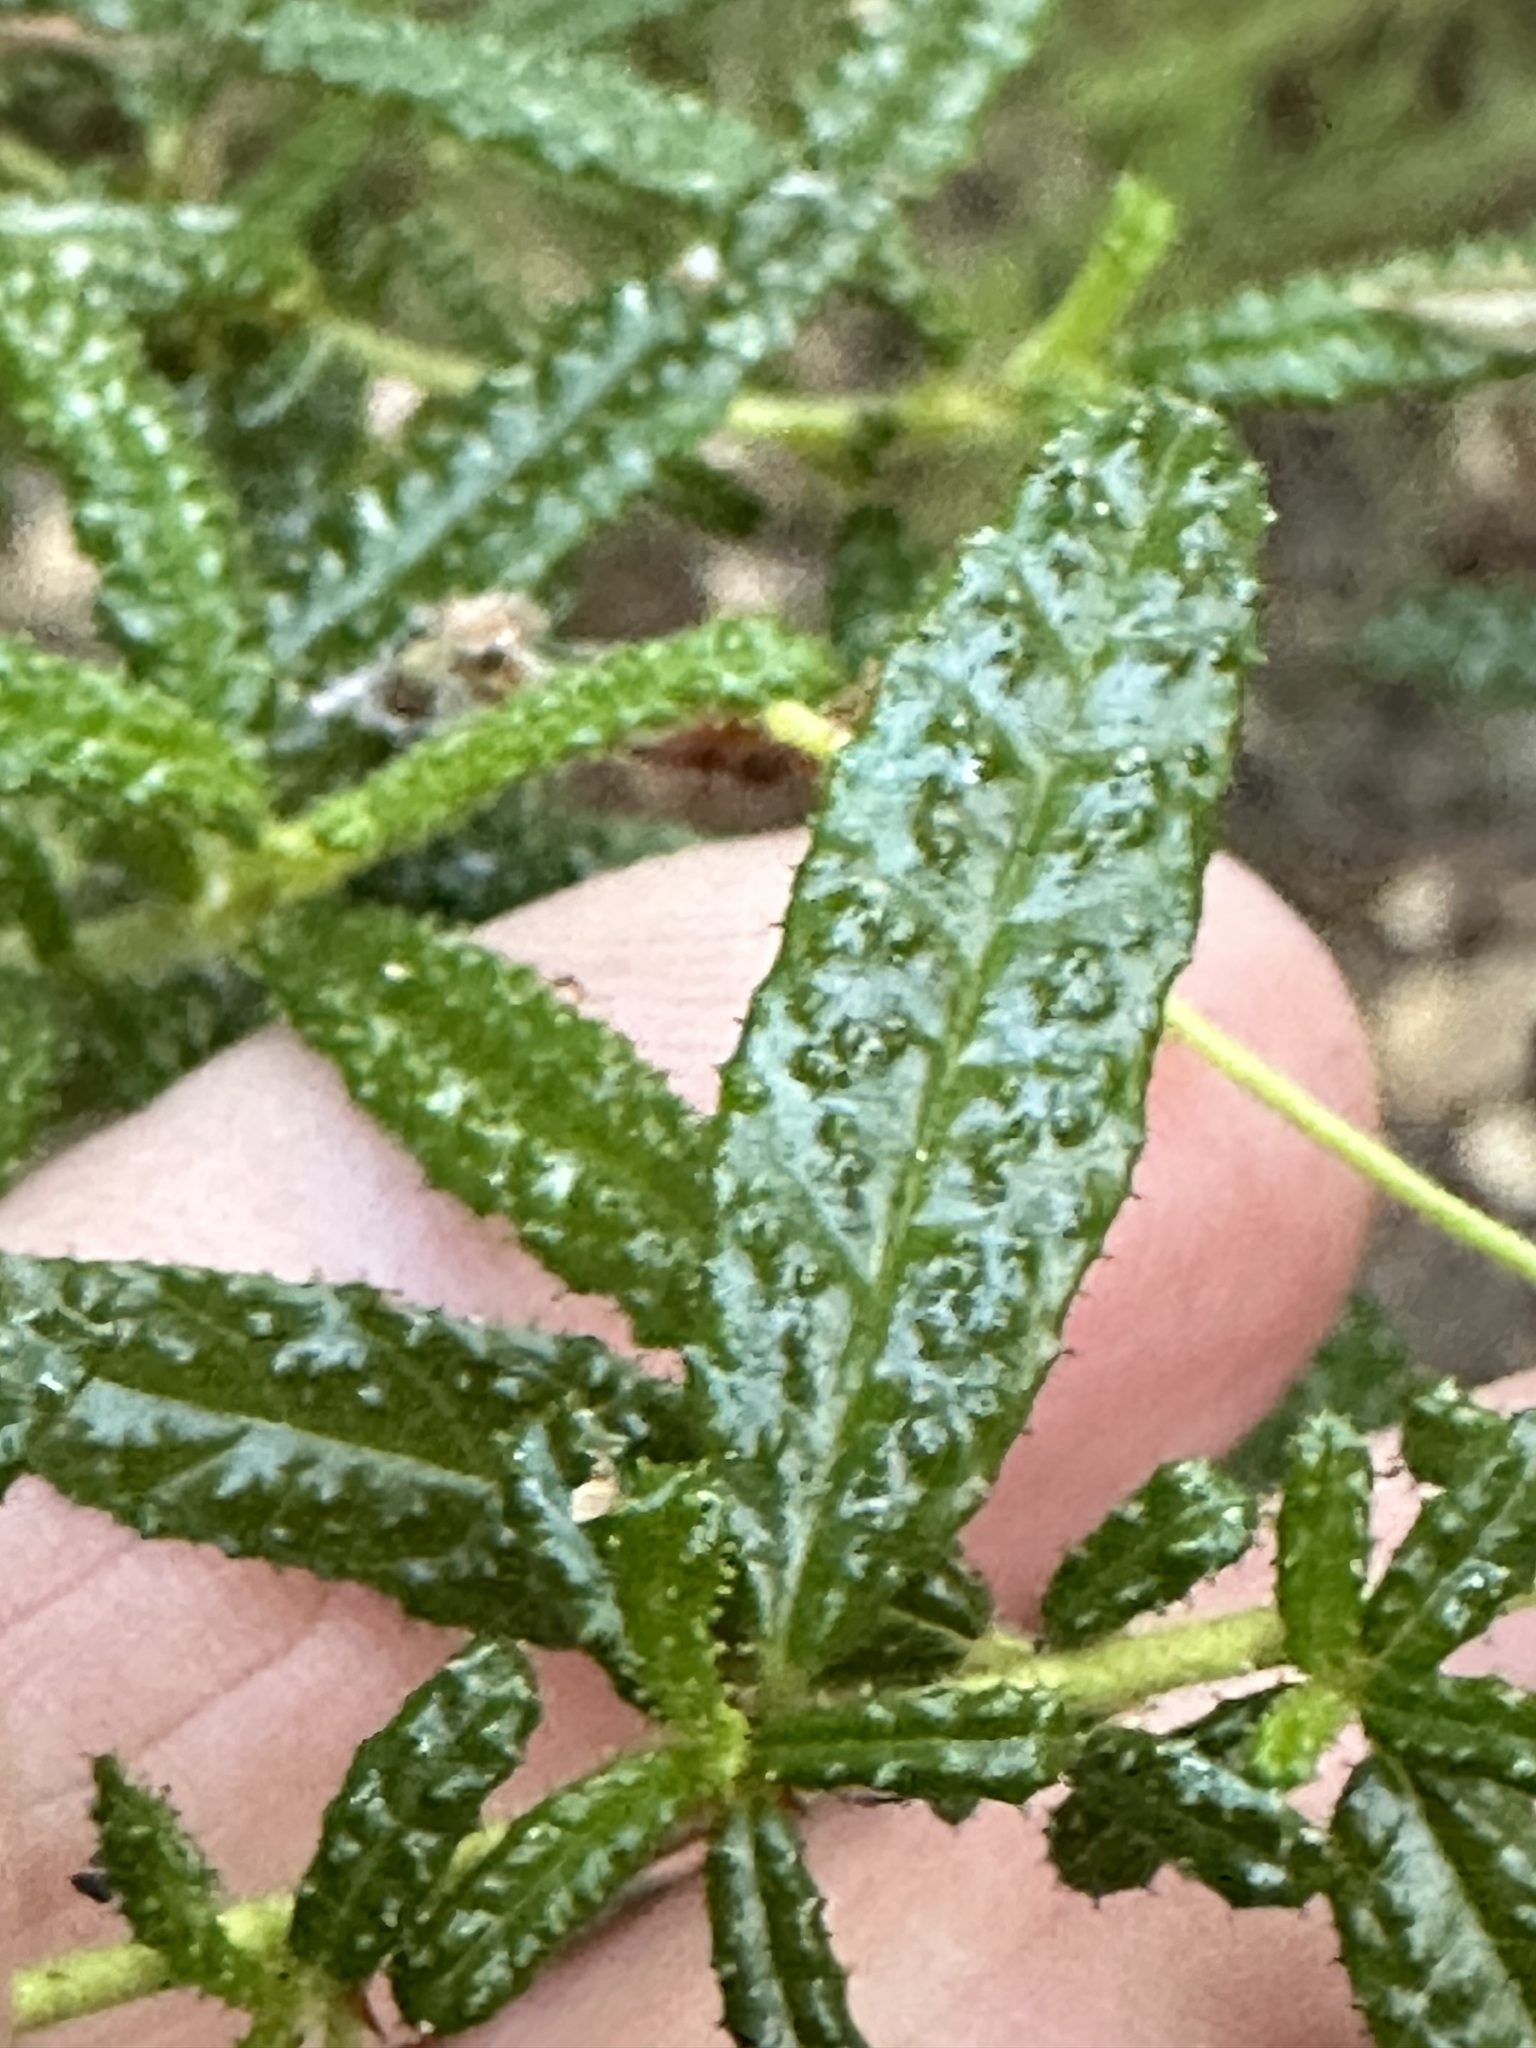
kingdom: Plantae
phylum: Tracheophyta
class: Magnoliopsida
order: Rosales
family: Rhamnaceae
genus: Ceanothus
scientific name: Ceanothus papillosus
